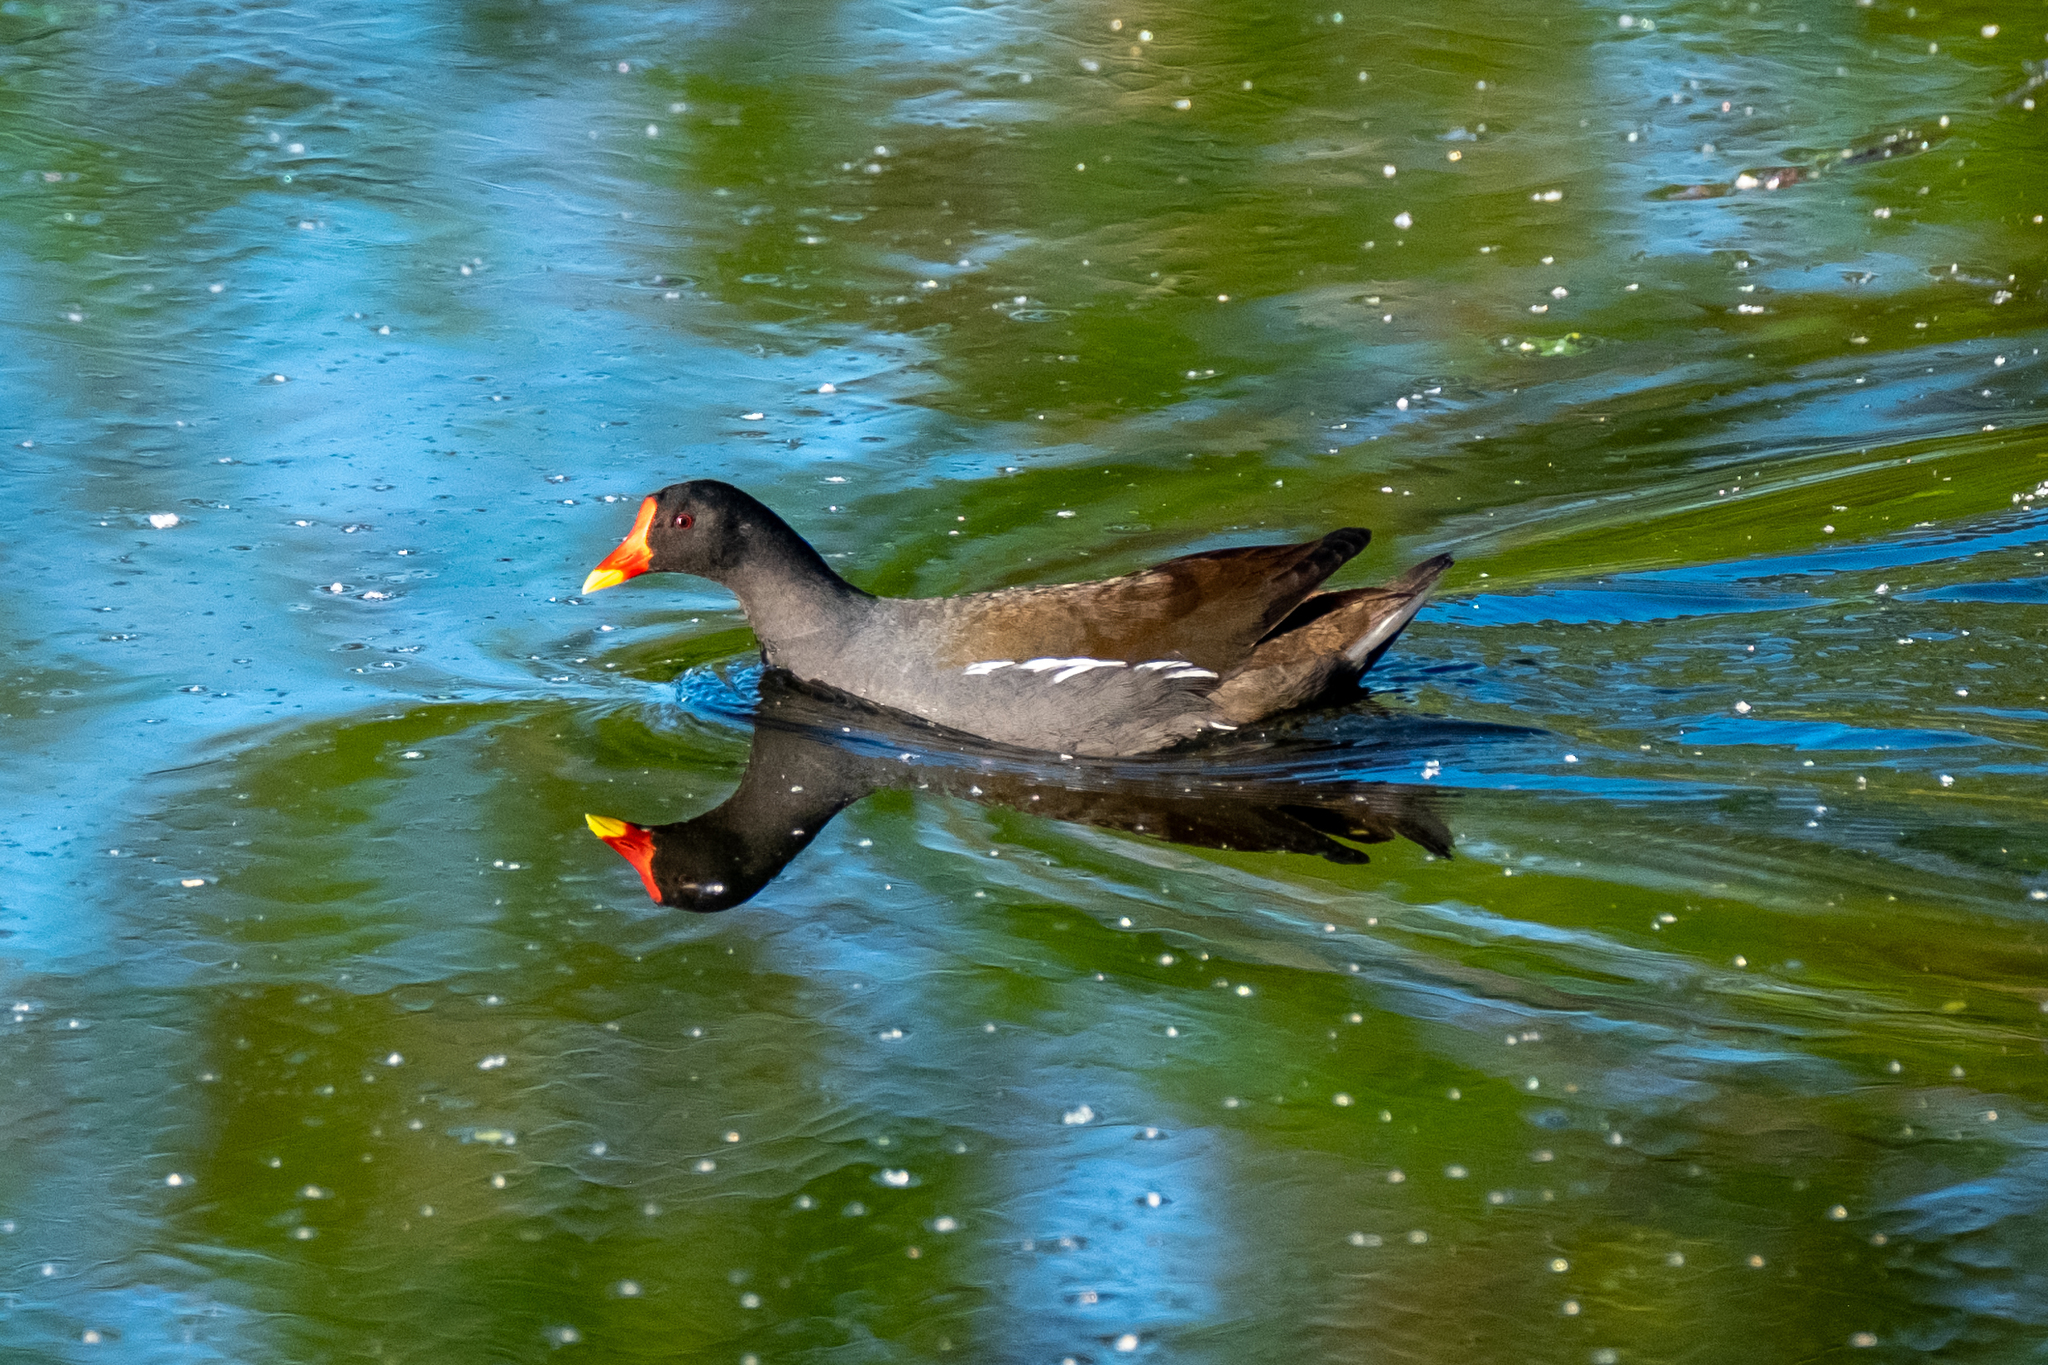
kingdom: Animalia
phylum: Chordata
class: Aves
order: Gruiformes
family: Rallidae
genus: Gallinula
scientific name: Gallinula chloropus
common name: Common moorhen
